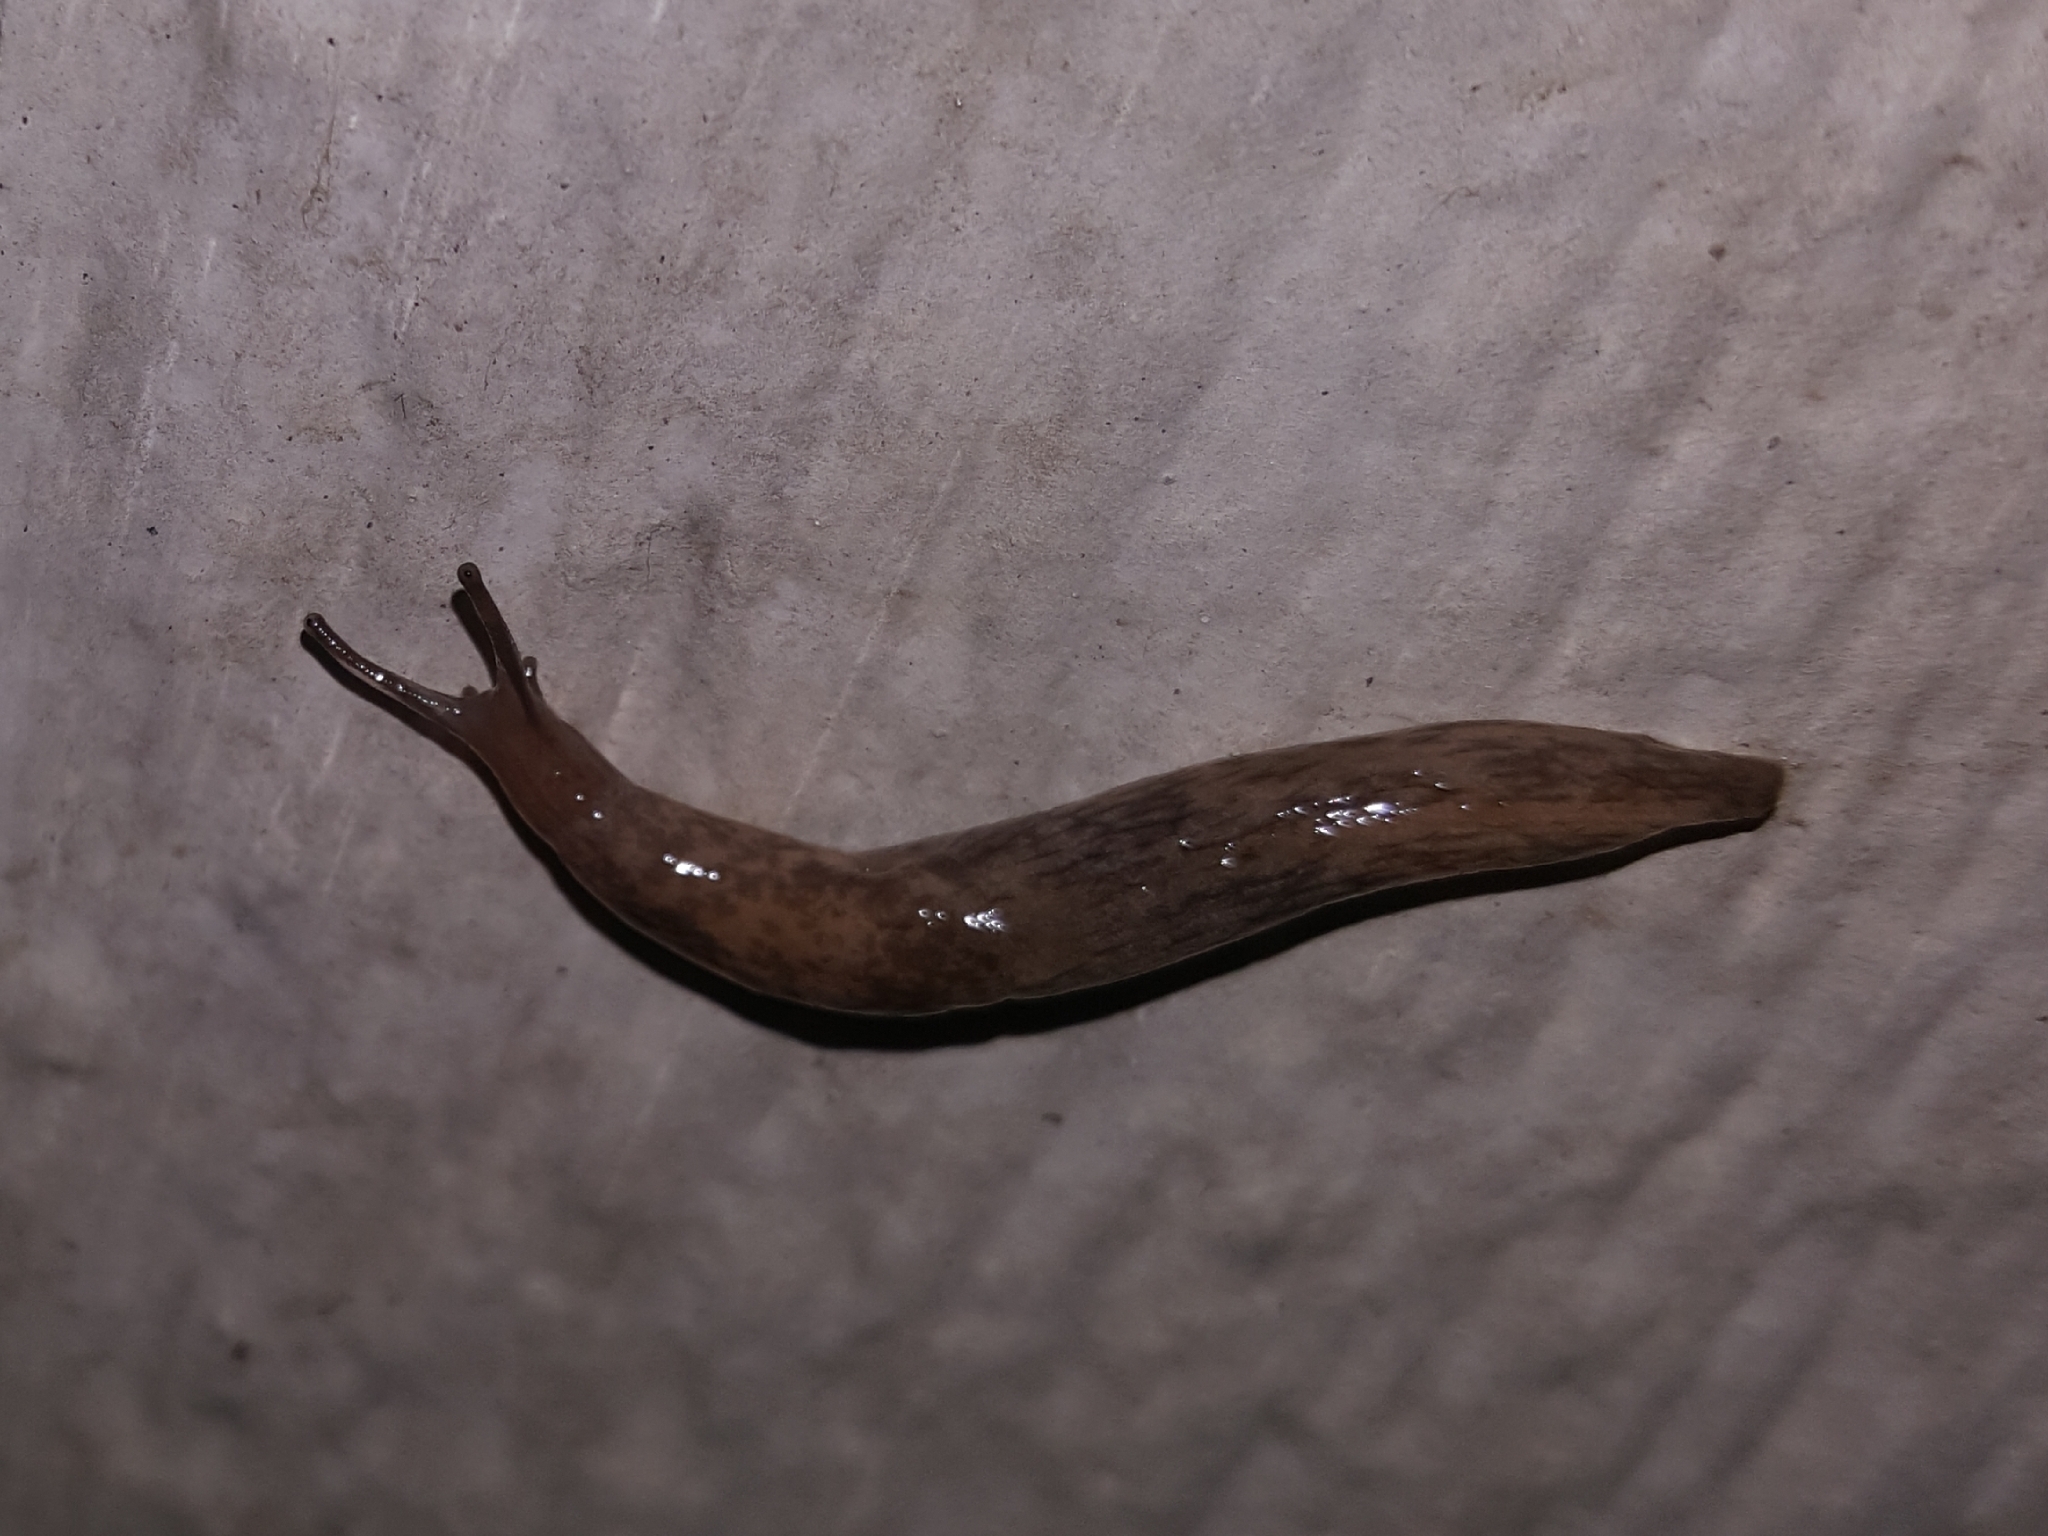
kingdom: Animalia
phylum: Mollusca
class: Gastropoda
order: Stylommatophora
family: Agriolimacidae
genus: Deroceras
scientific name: Deroceras reticulatum
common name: Gray field slug
